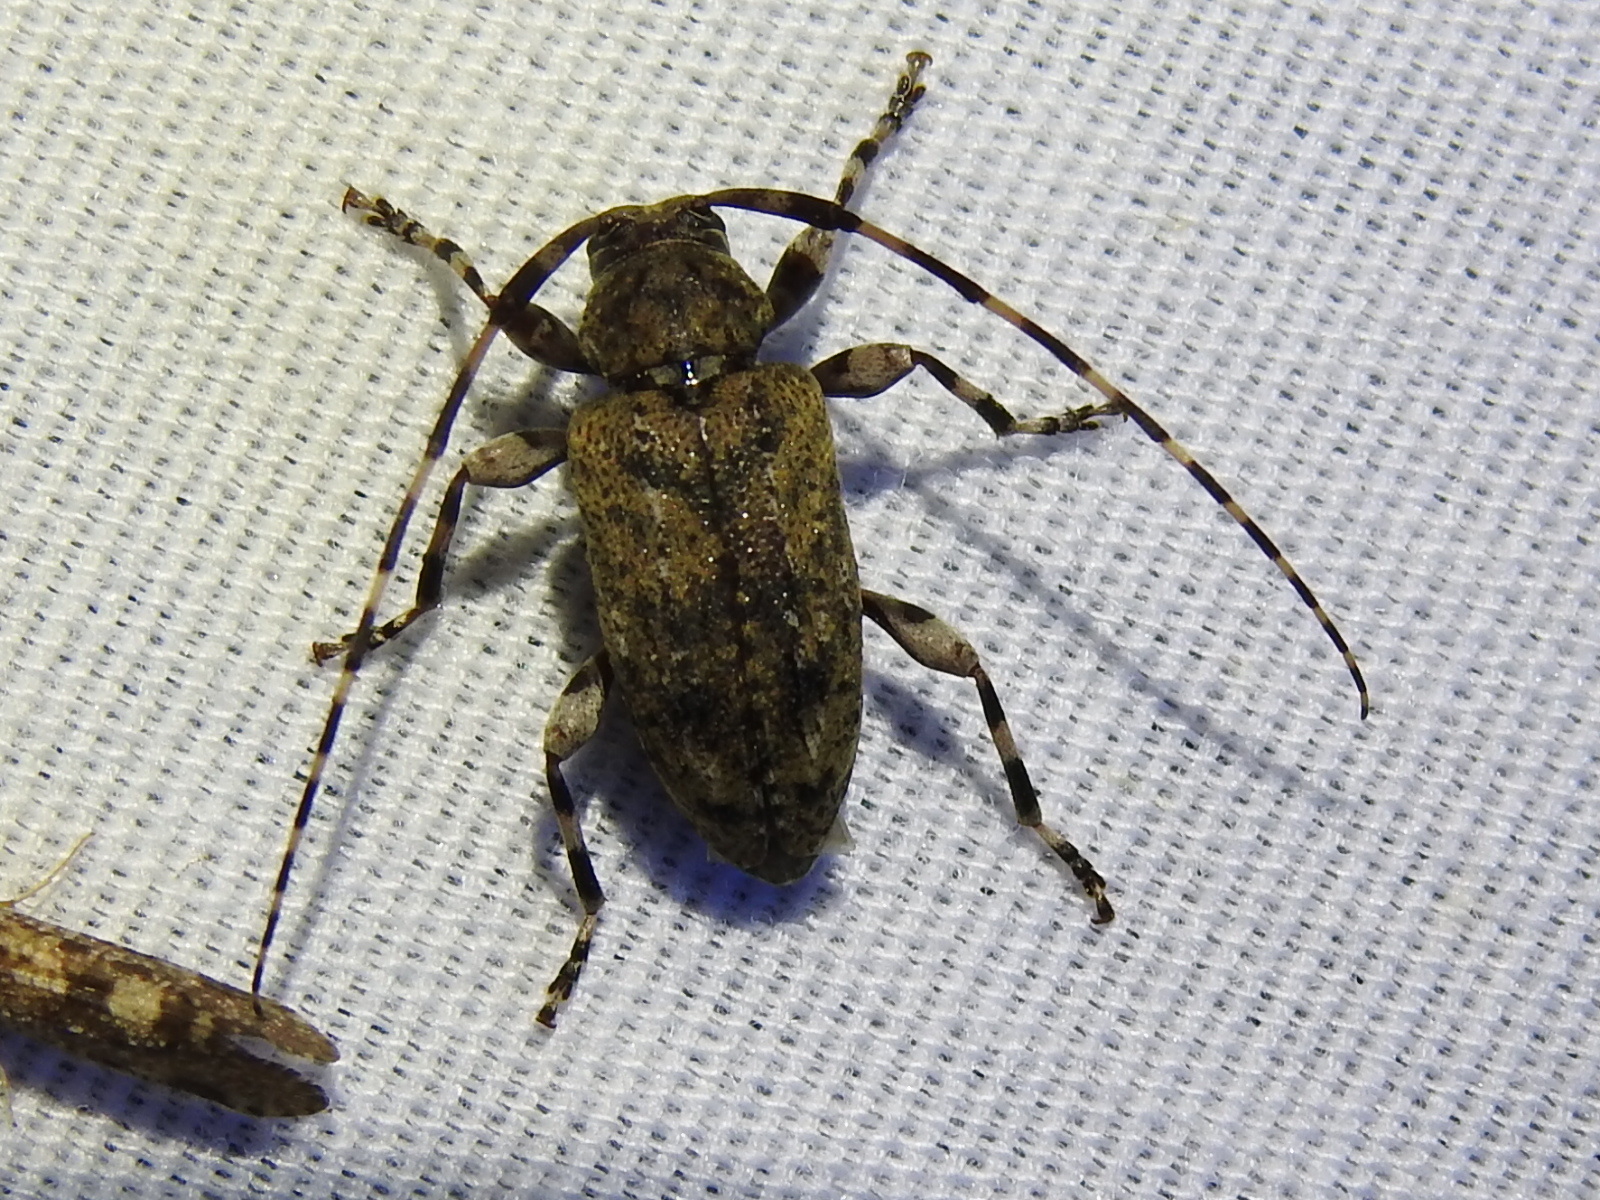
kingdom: Animalia
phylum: Arthropoda
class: Insecta
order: Coleoptera
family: Cerambycidae
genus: Astyleiopus
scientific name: Astyleiopus variegatus
